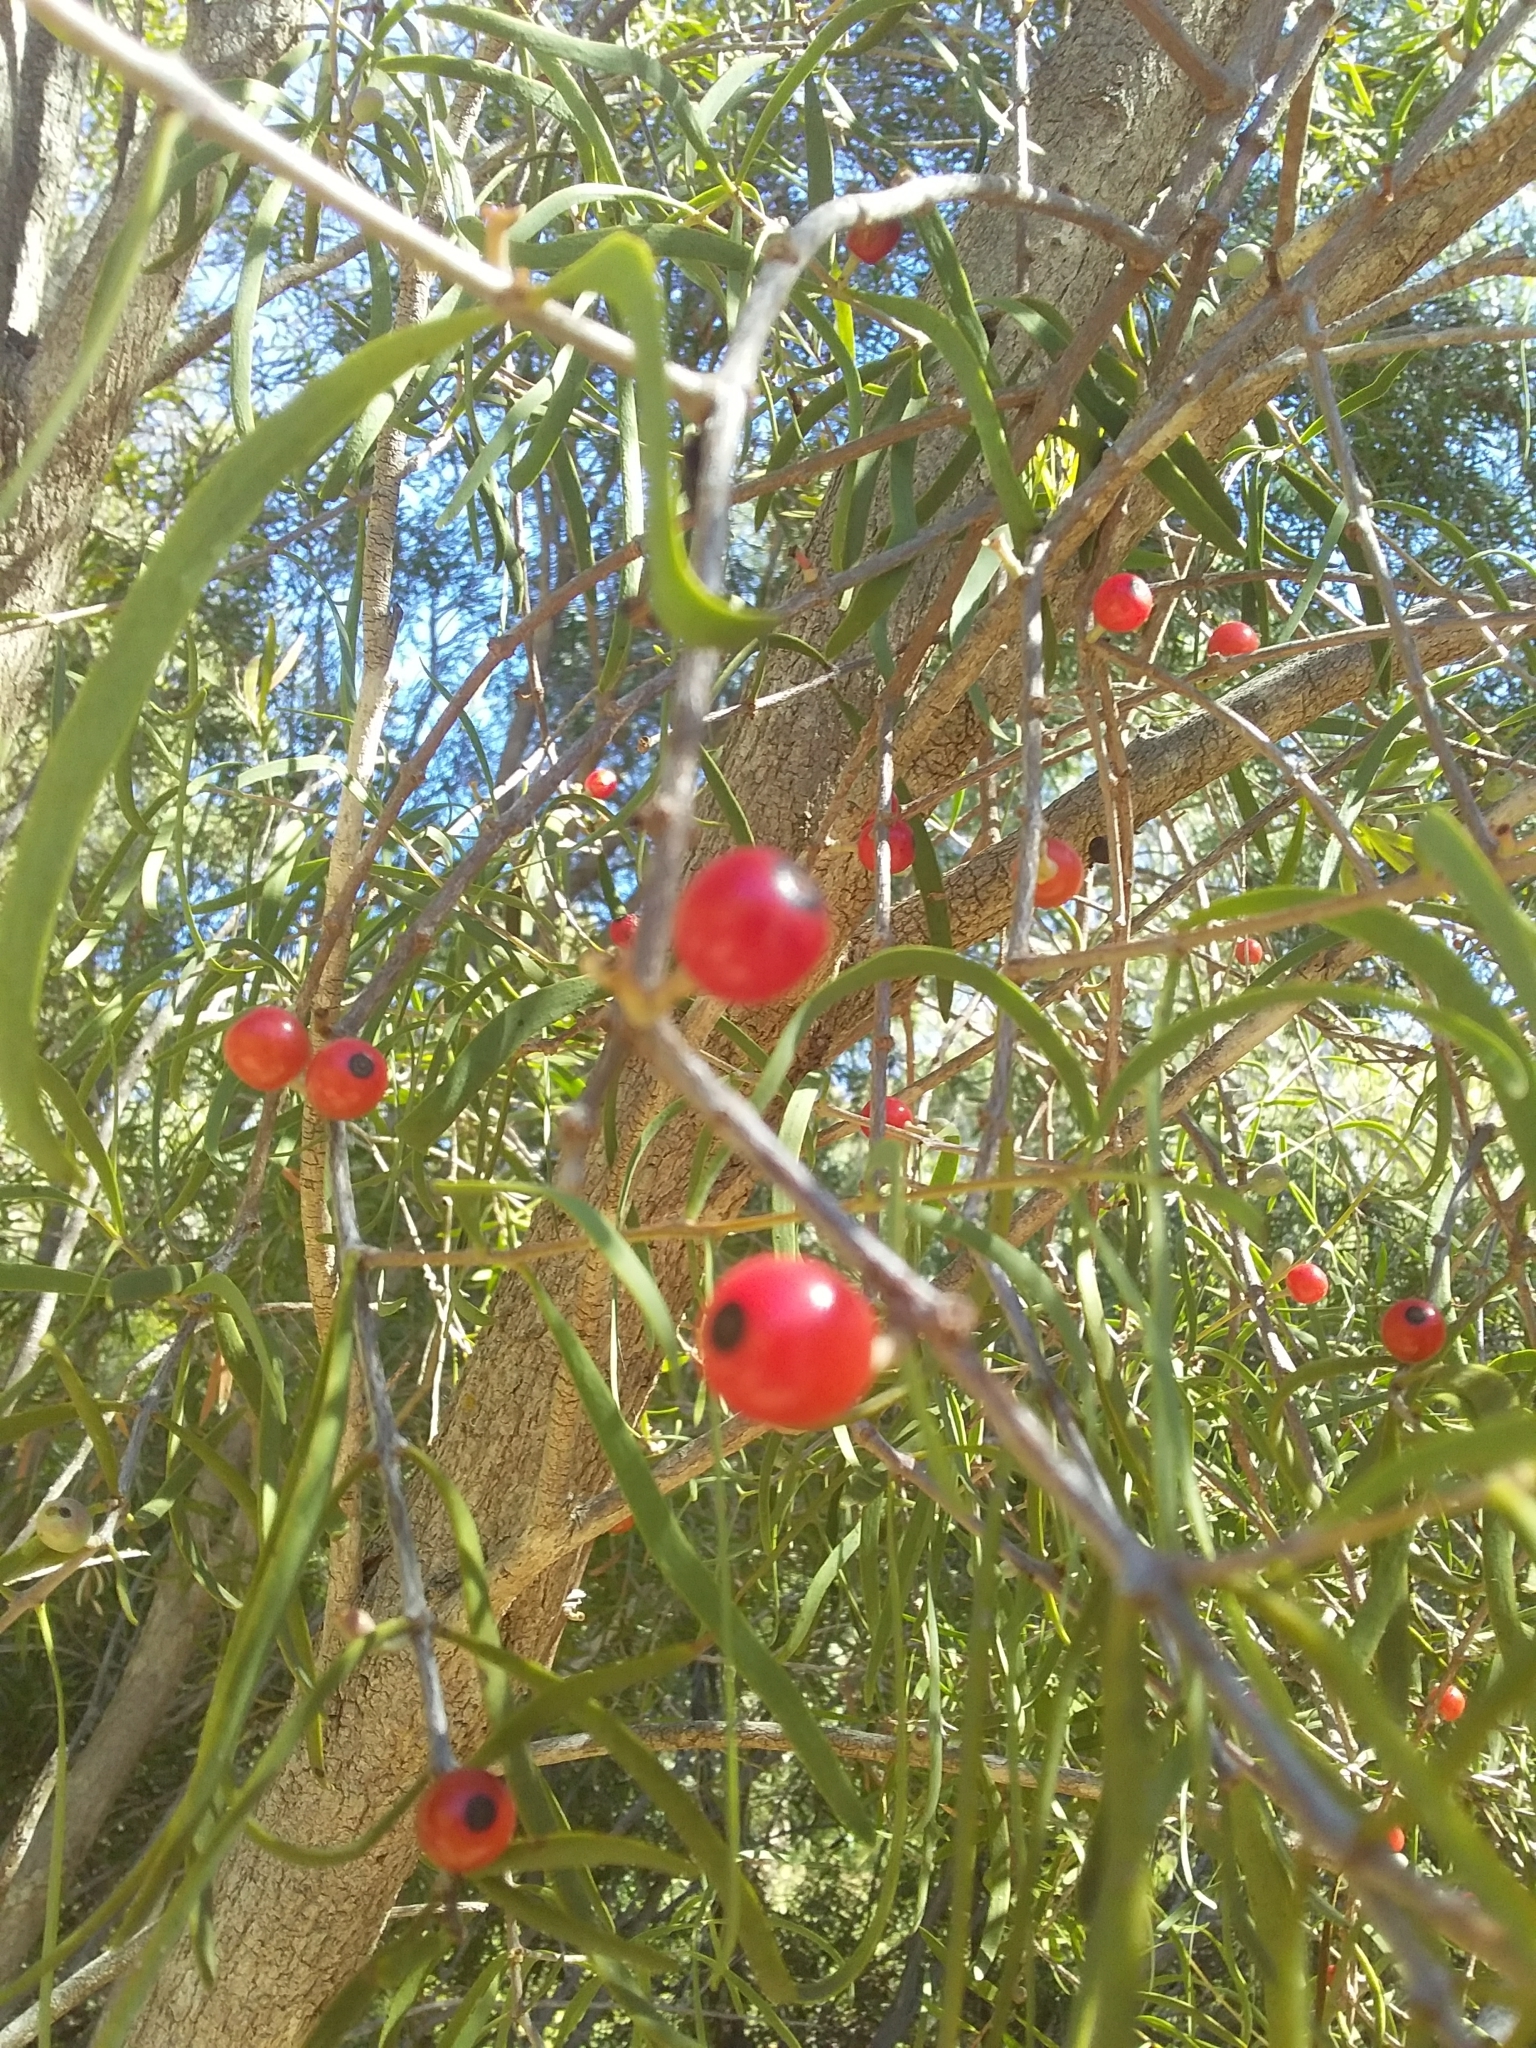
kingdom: Plantae
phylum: Tracheophyta
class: Magnoliopsida
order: Santalales
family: Loranthaceae
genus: Lysiana
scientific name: Lysiana exocarpi
